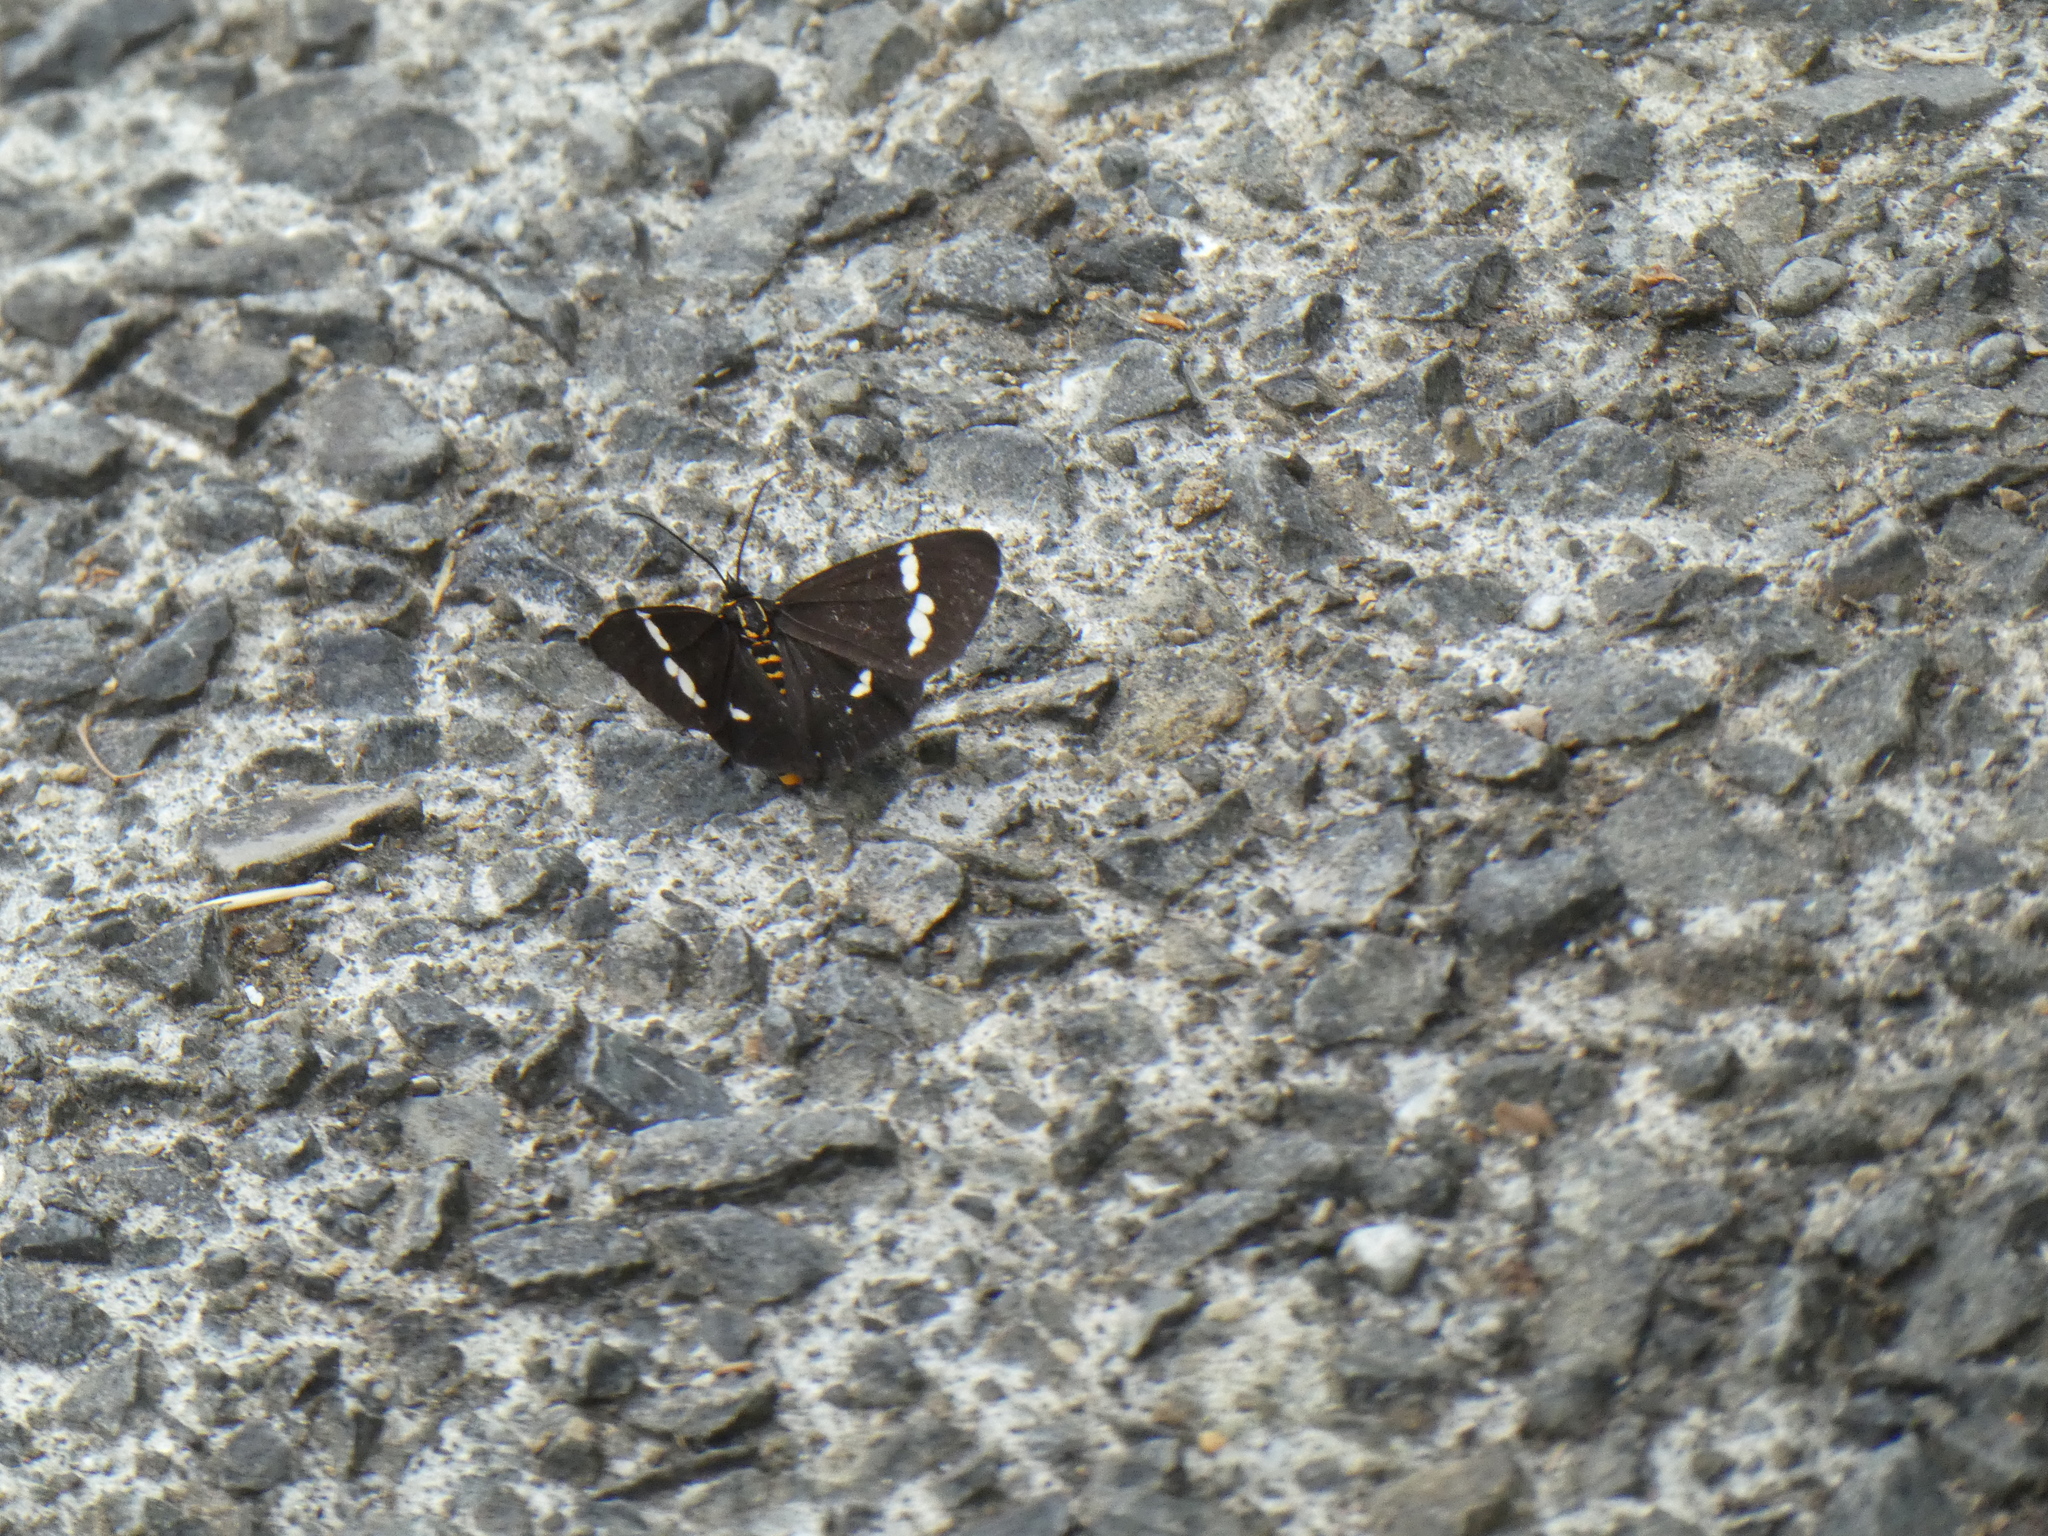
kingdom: Animalia
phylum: Arthropoda
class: Insecta
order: Lepidoptera
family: Erebidae
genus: Nyctemera
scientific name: Nyctemera annulatum
